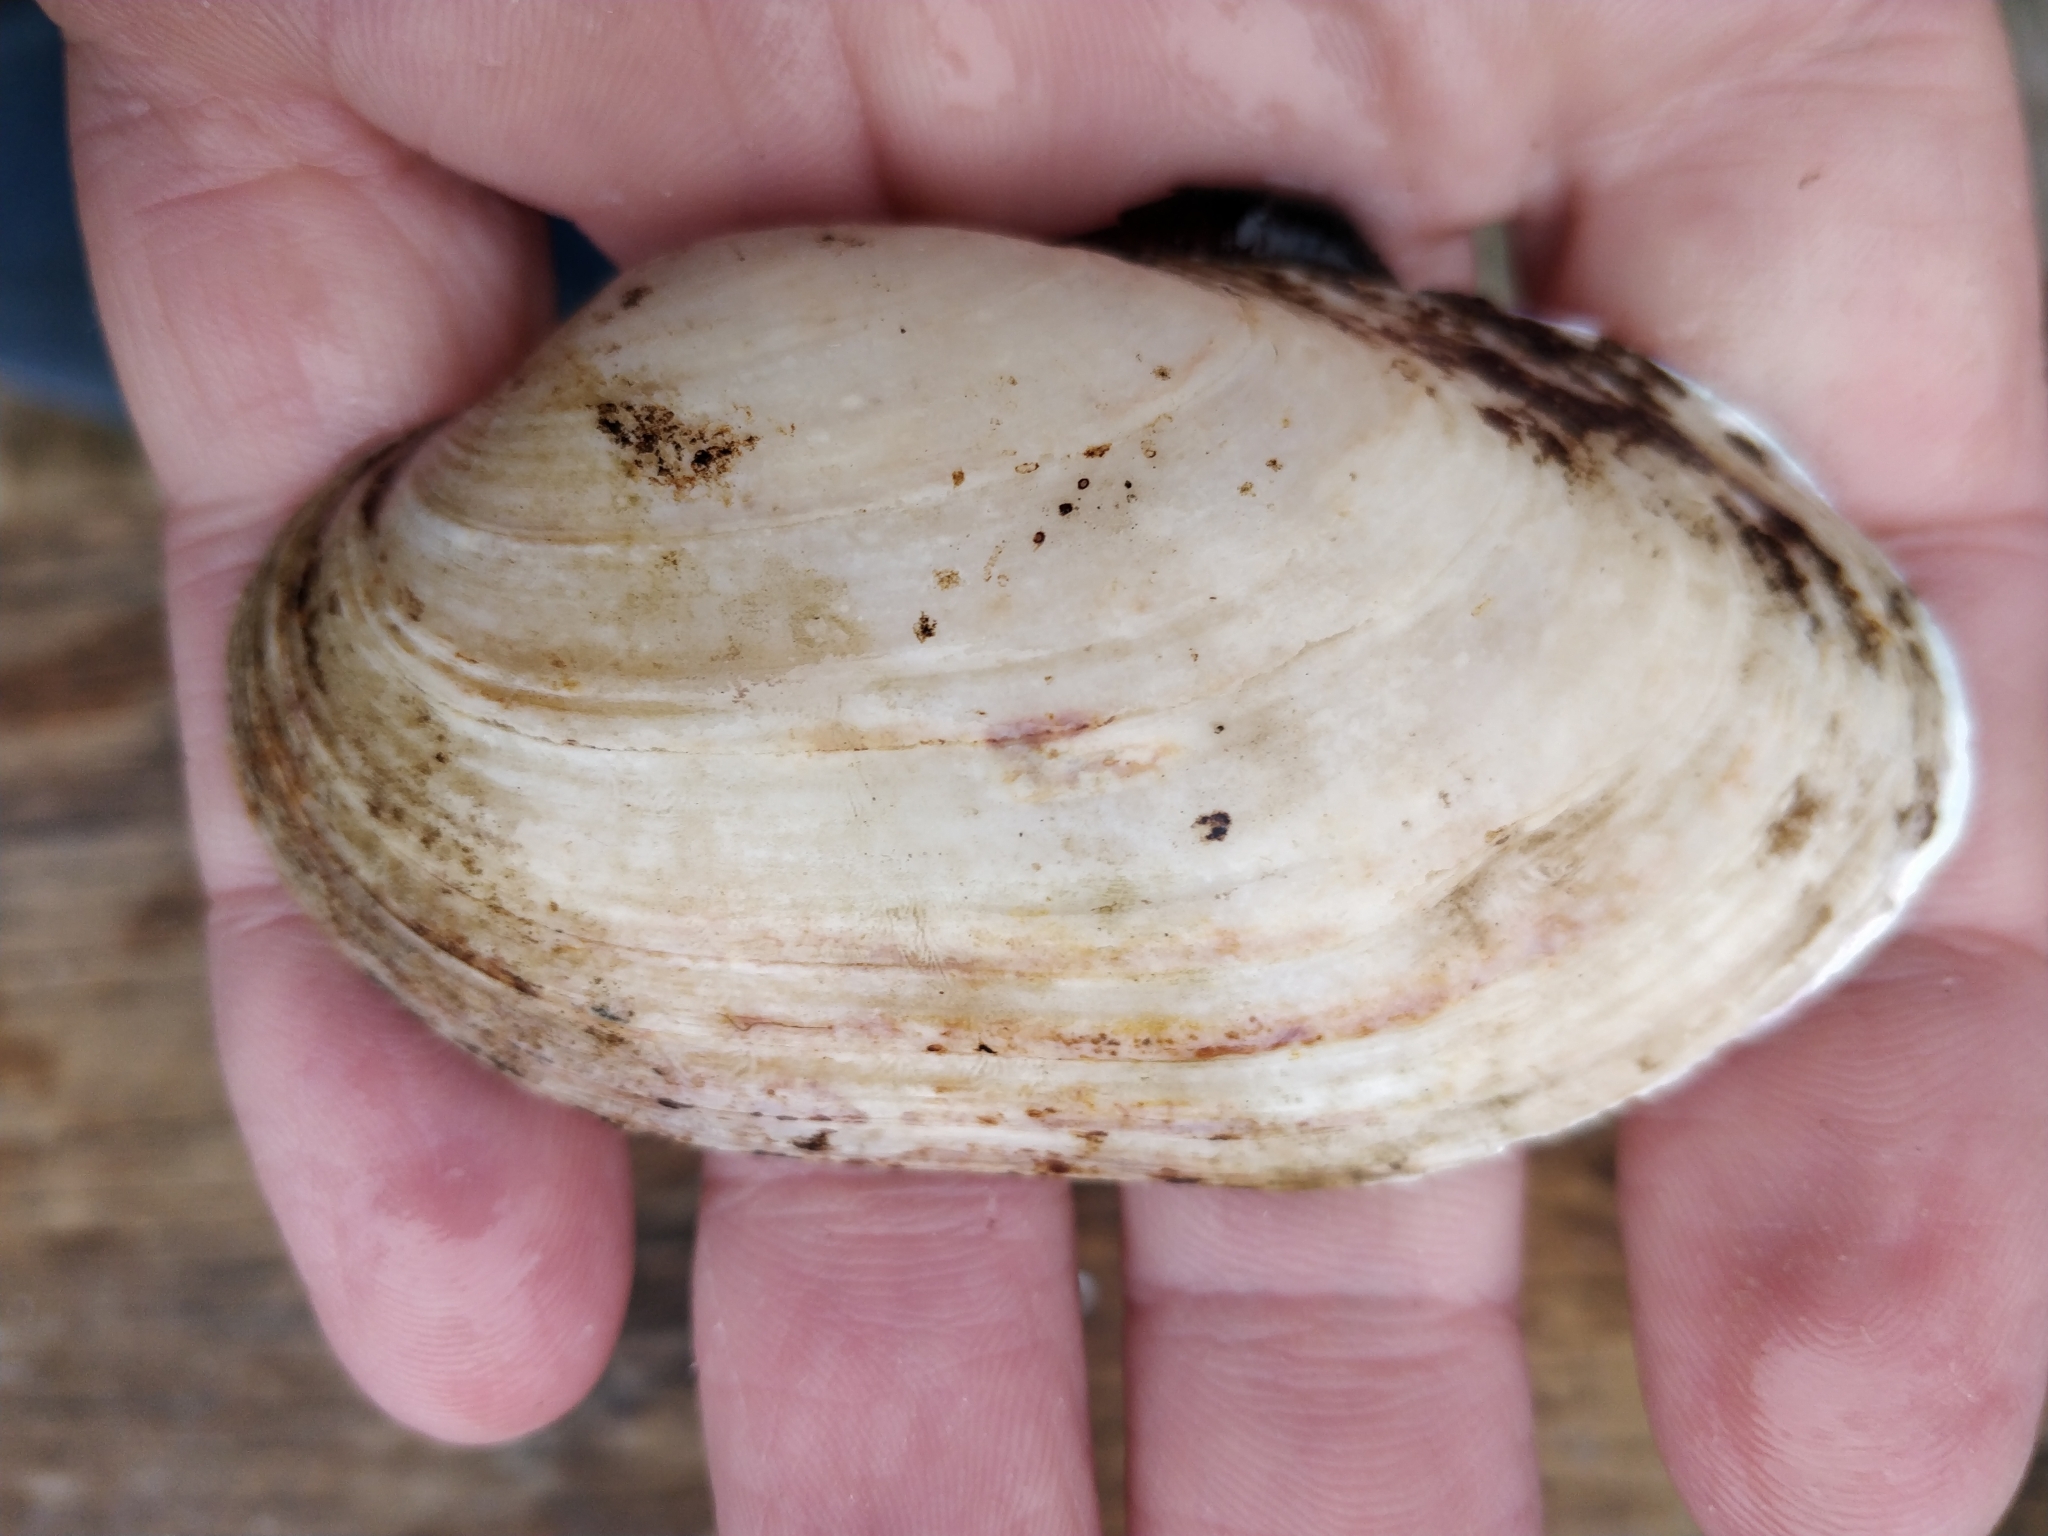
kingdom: Animalia
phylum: Mollusca
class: Bivalvia
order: Unionida
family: Unionidae
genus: Lampsilis
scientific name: Lampsilis siliquoidea
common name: Fatmucket
